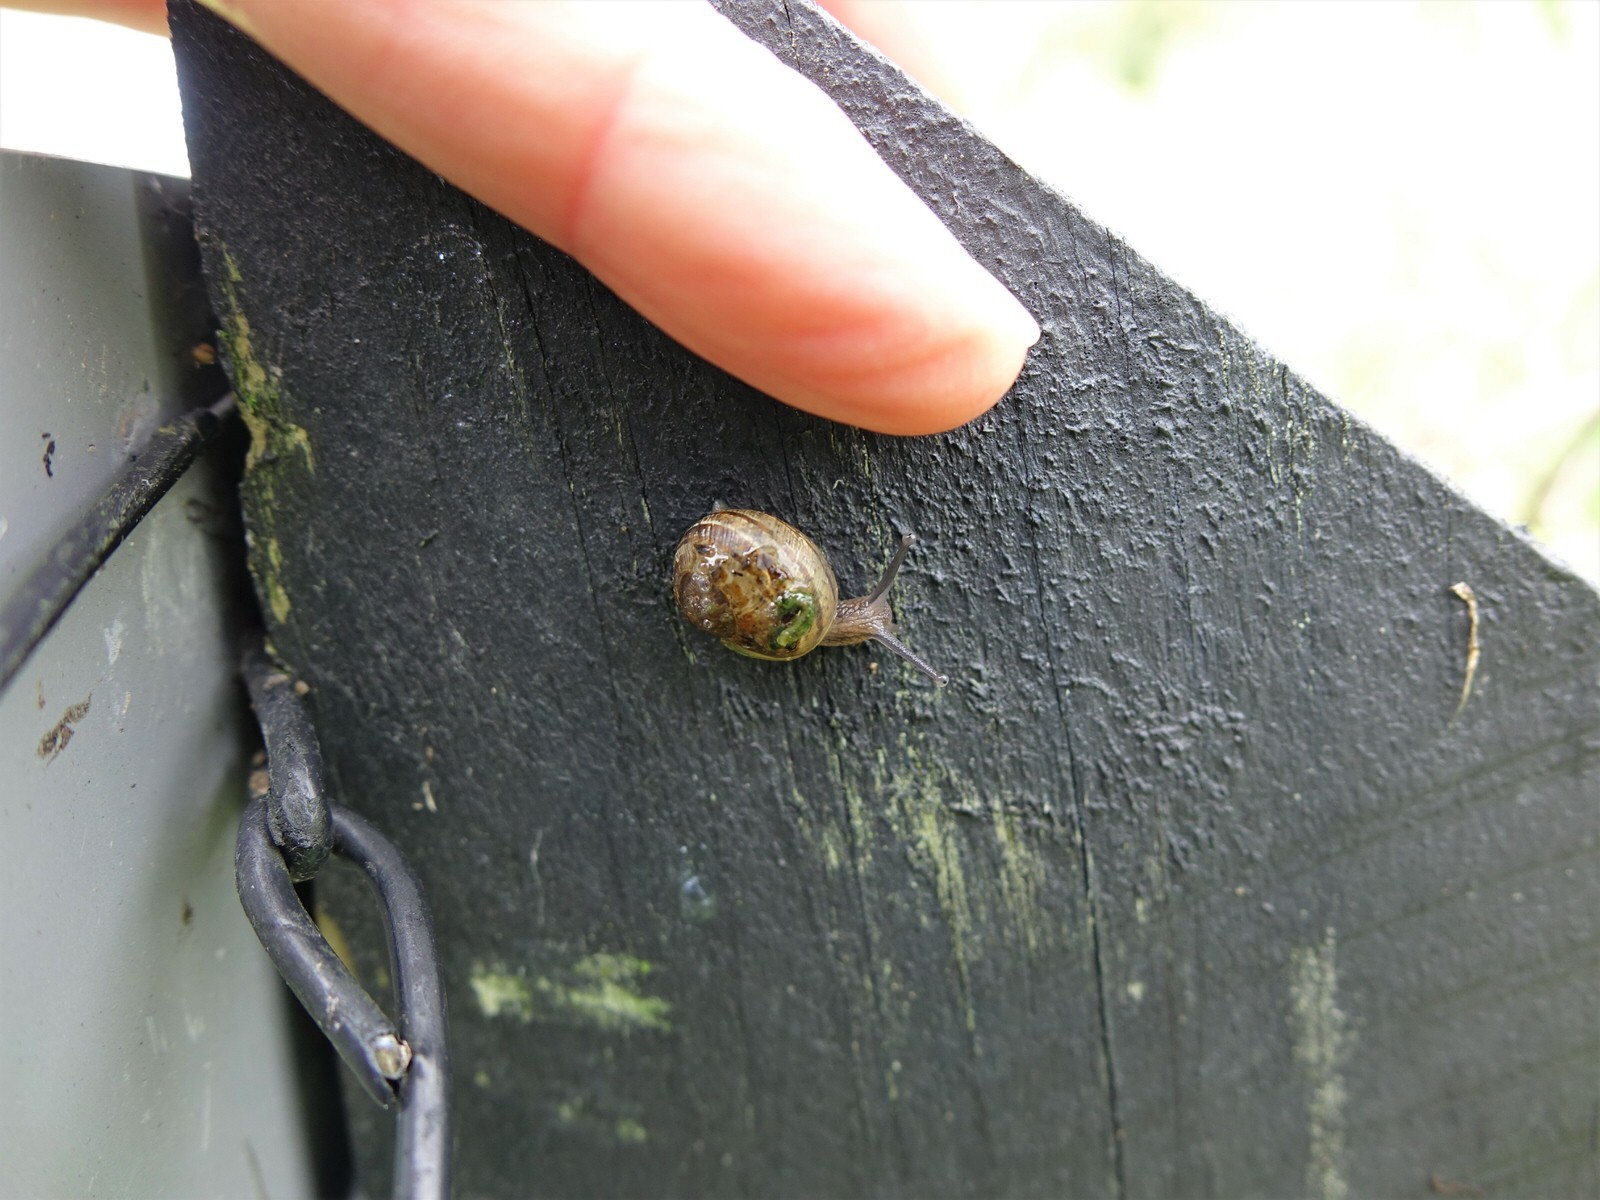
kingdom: Animalia
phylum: Mollusca
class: Gastropoda
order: Stylommatophora
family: Helicidae
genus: Cornu
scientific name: Cornu aspersum
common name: Brown garden snail
